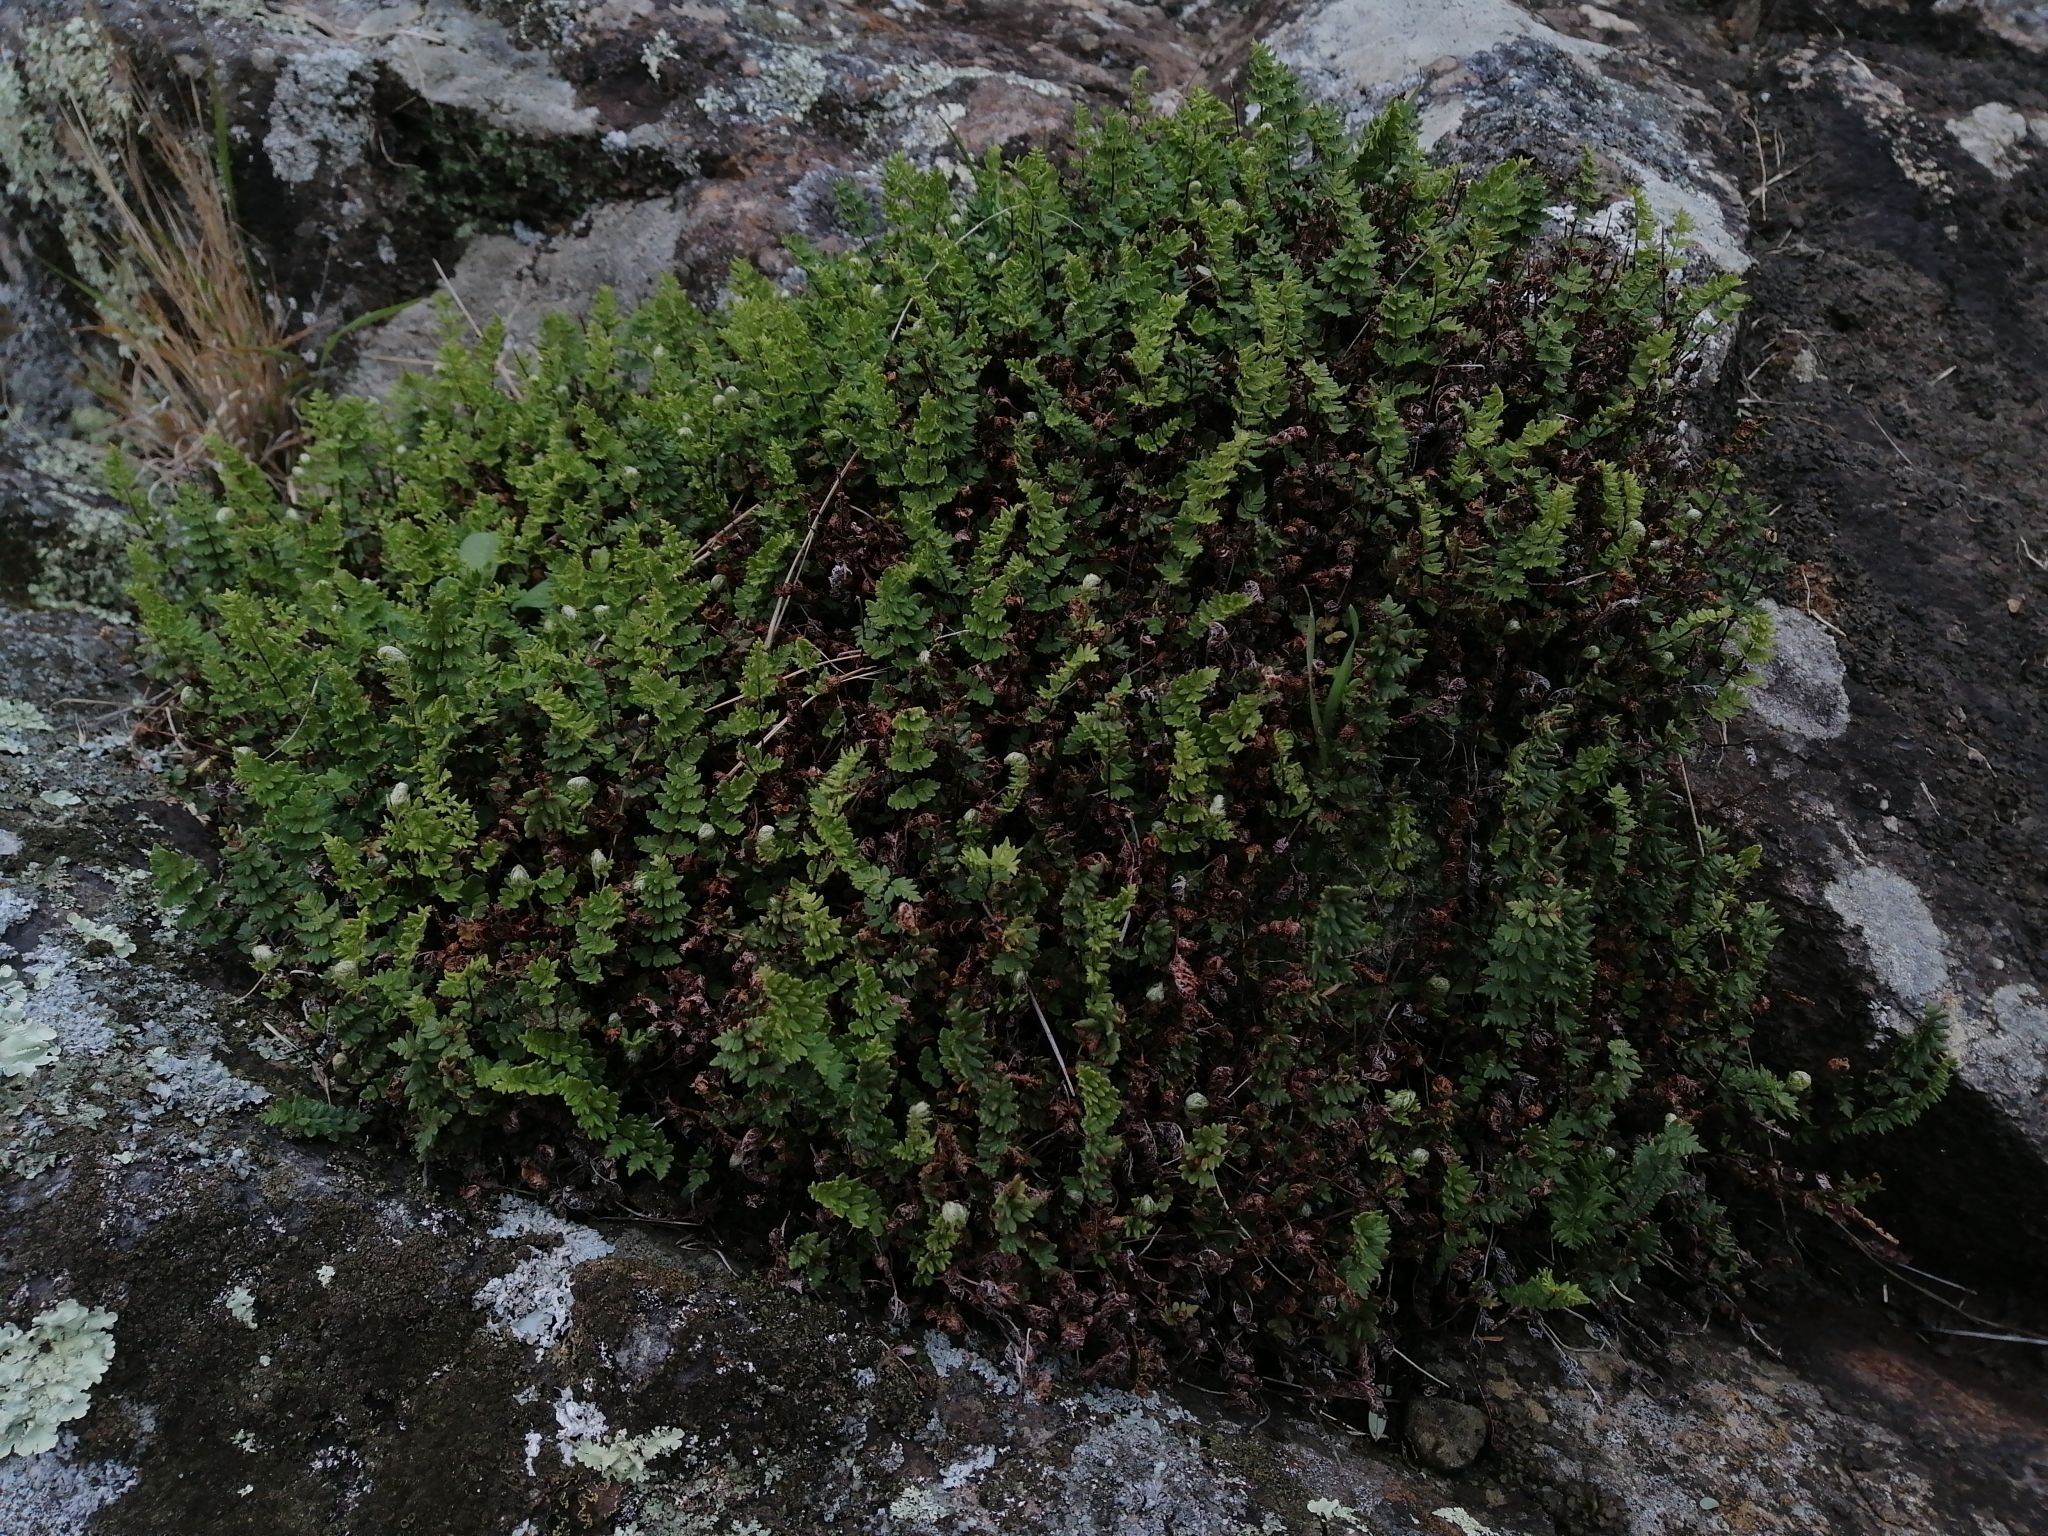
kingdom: Plantae
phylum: Tracheophyta
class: Polypodiopsida
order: Polypodiales
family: Pteridaceae
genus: Cheilanthes
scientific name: Cheilanthes distans
